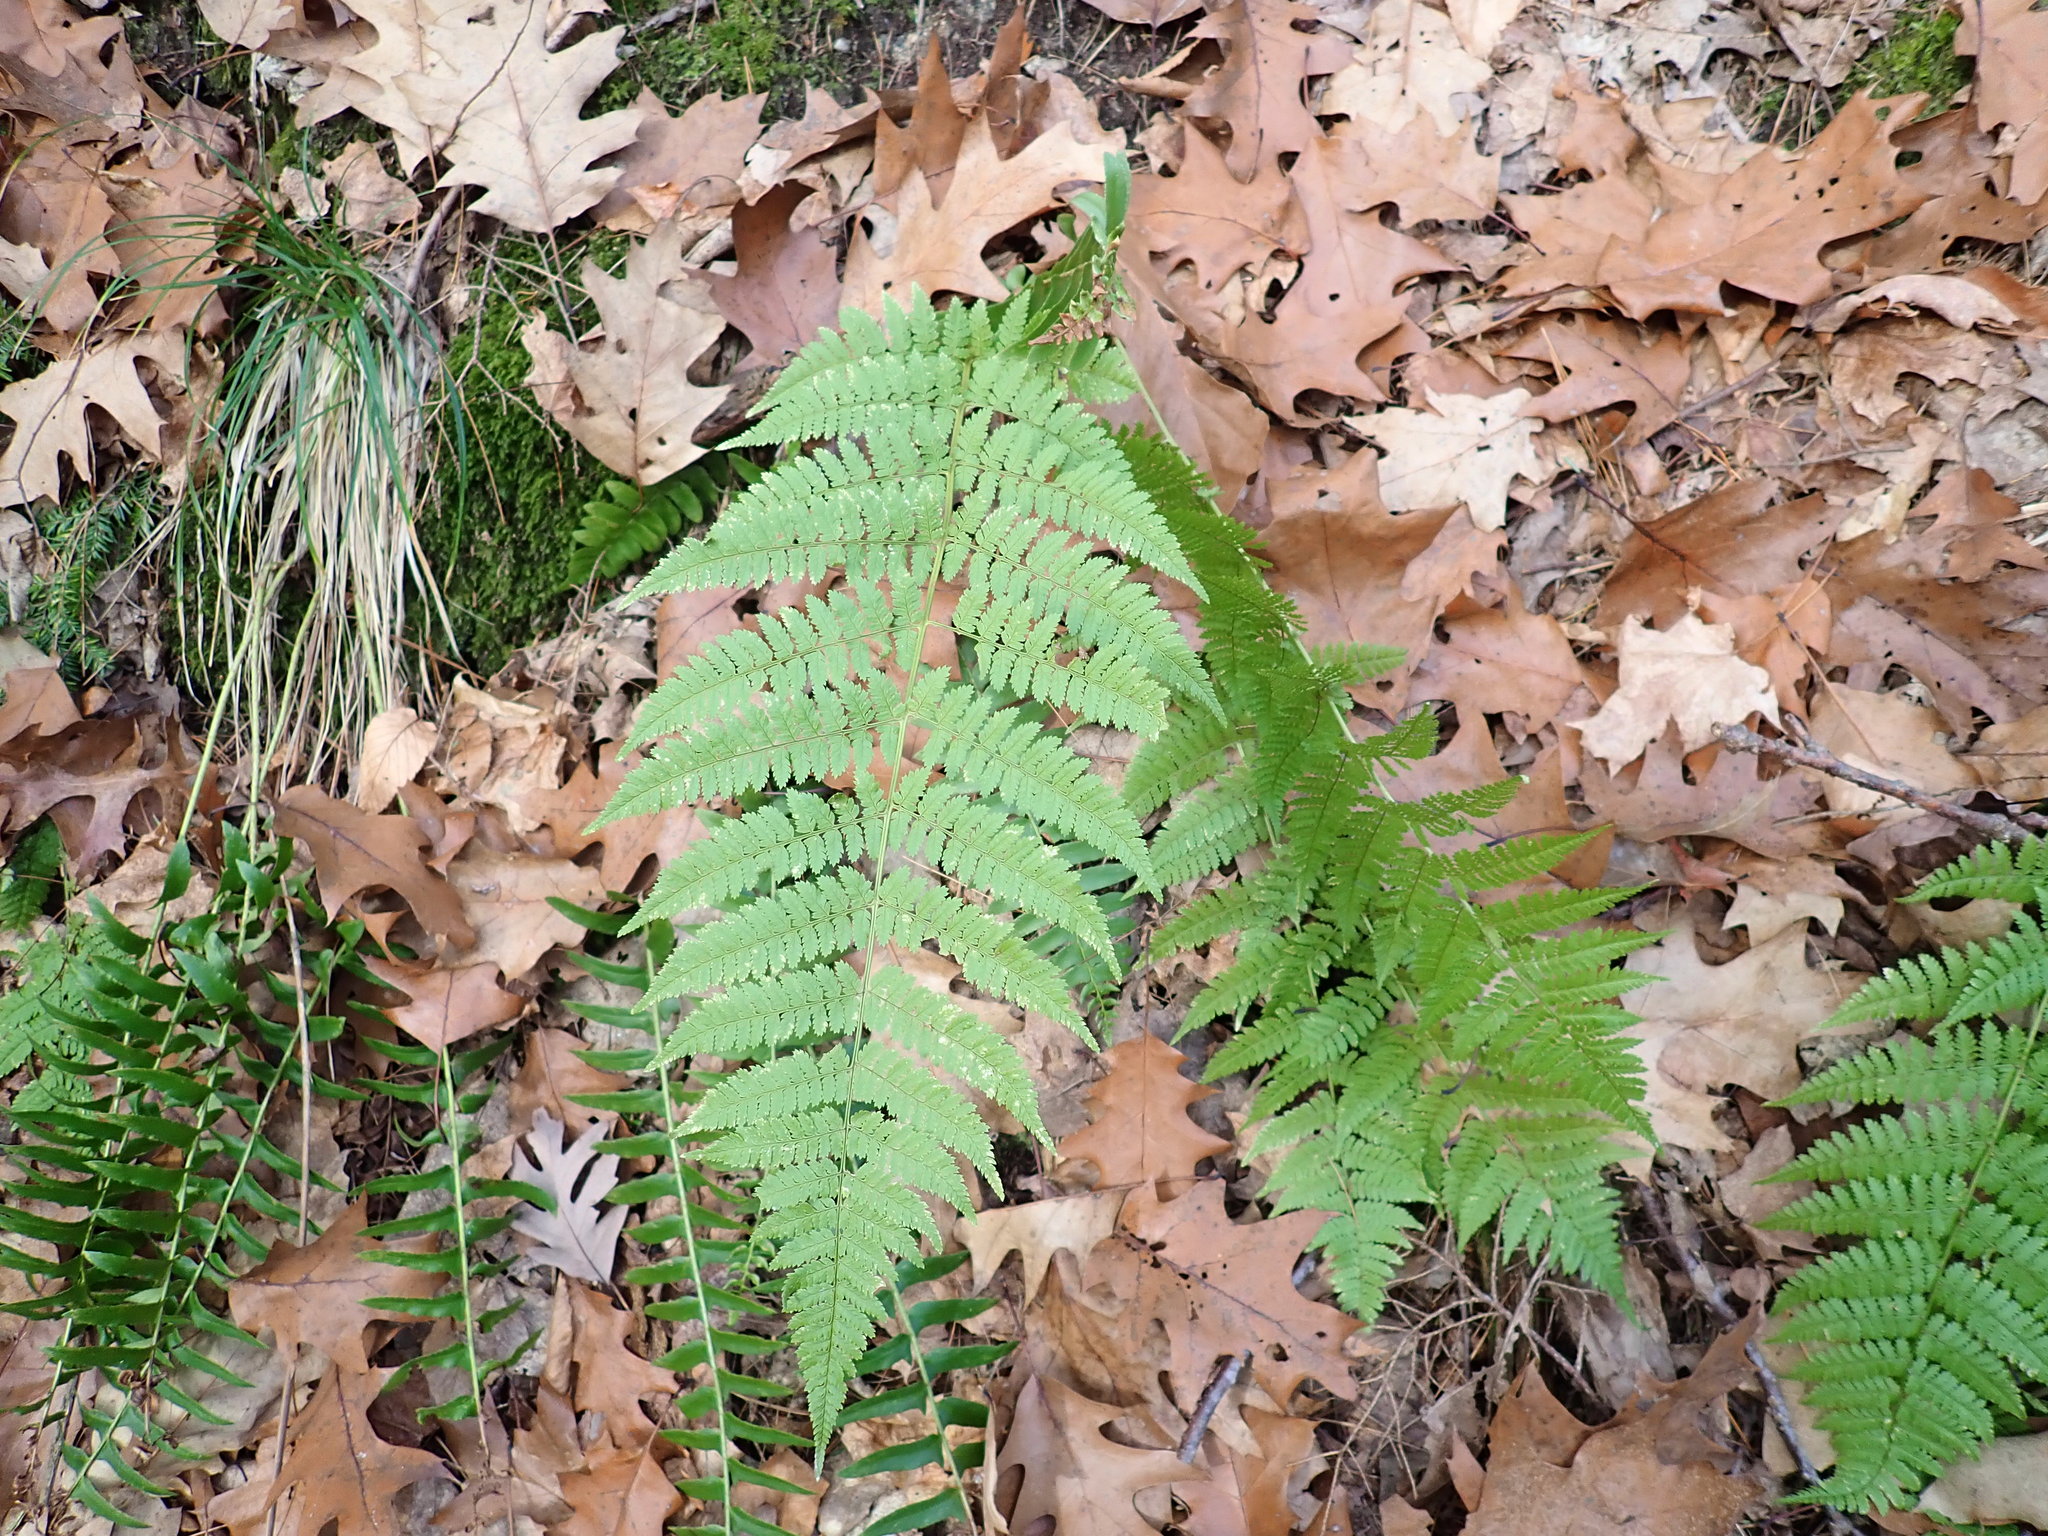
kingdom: Plantae
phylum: Tracheophyta
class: Polypodiopsida
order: Polypodiales
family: Dryopteridaceae
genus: Dryopteris
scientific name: Dryopteris intermedia
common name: Evergreen wood fern
